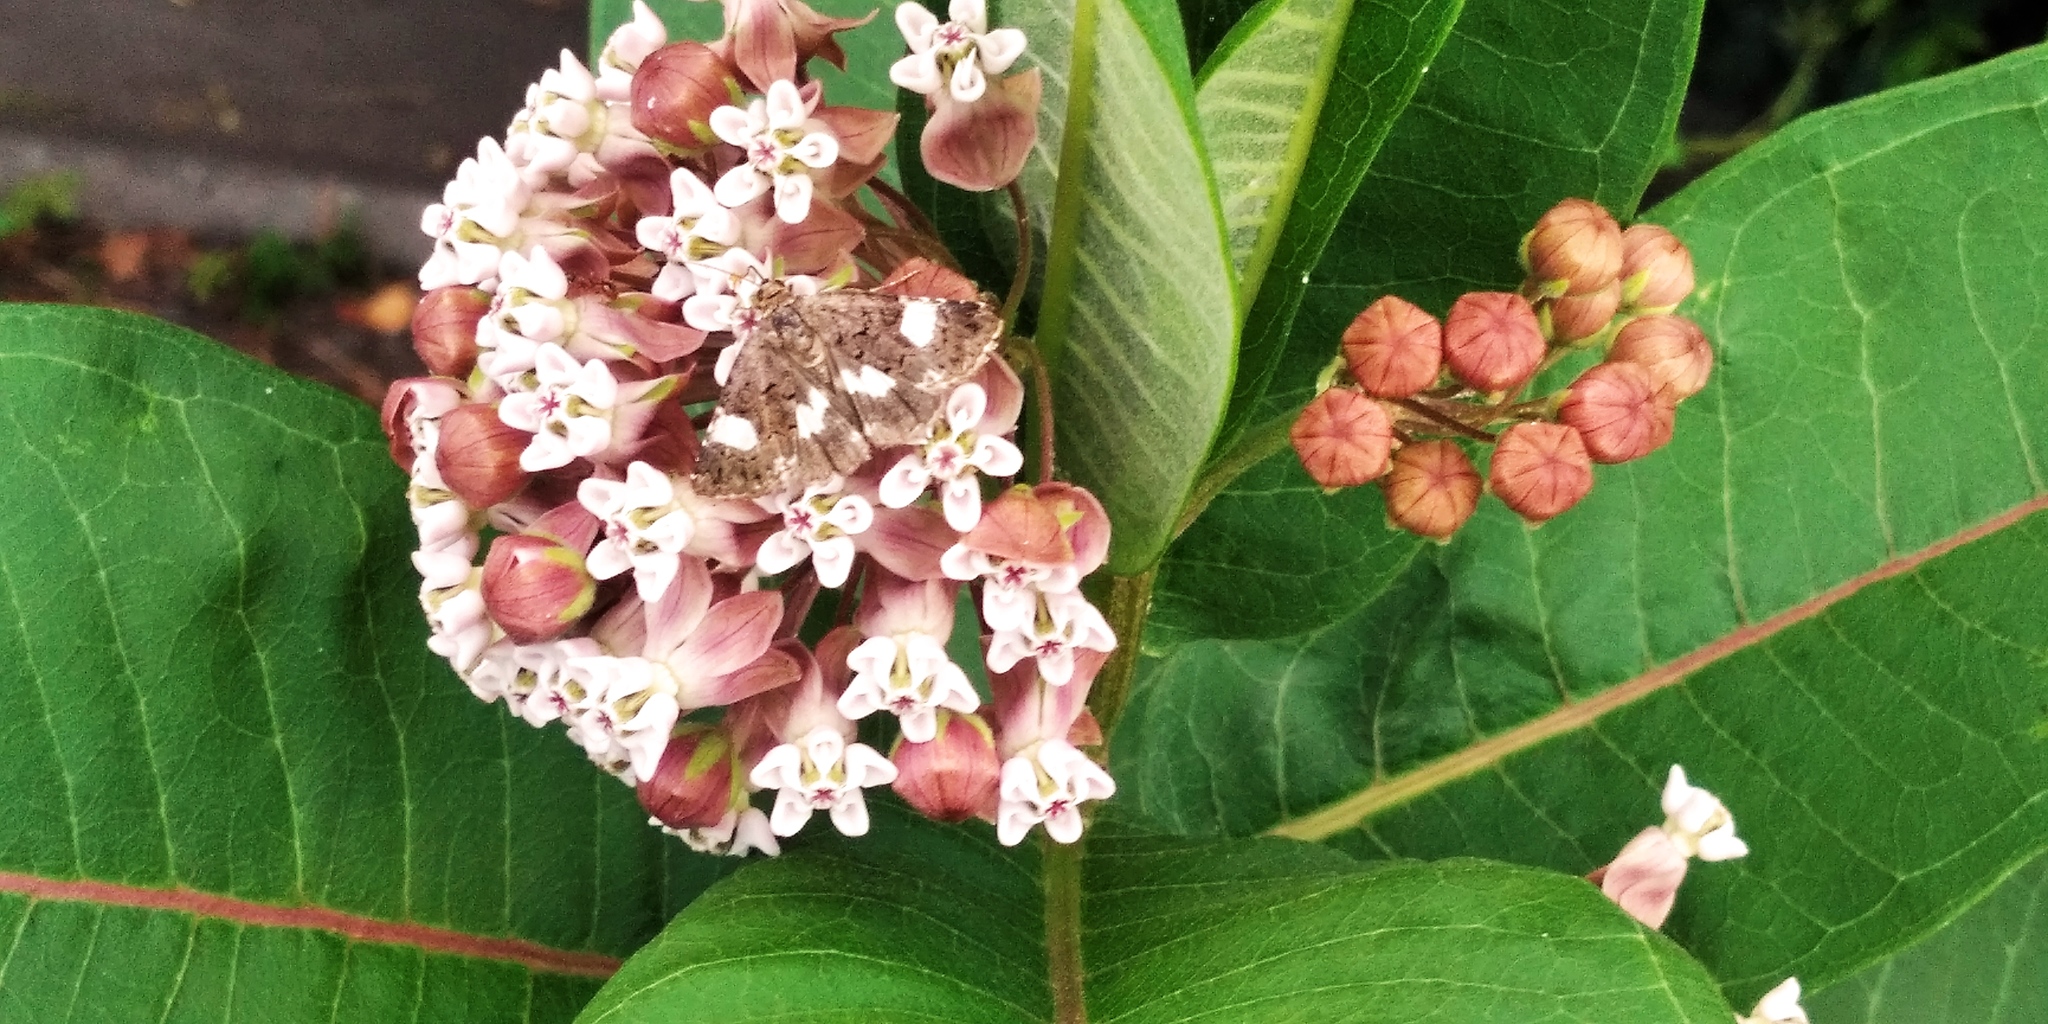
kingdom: Plantae
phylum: Tracheophyta
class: Magnoliopsida
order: Gentianales
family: Apocynaceae
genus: Asclepias
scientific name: Asclepias syriaca
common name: Common milkweed
